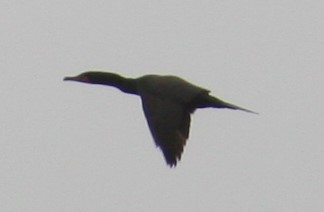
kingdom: Animalia
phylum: Chordata
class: Aves
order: Suliformes
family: Phalacrocoracidae
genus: Phalacrocorax
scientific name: Phalacrocorax auritus
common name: Double-crested cormorant
